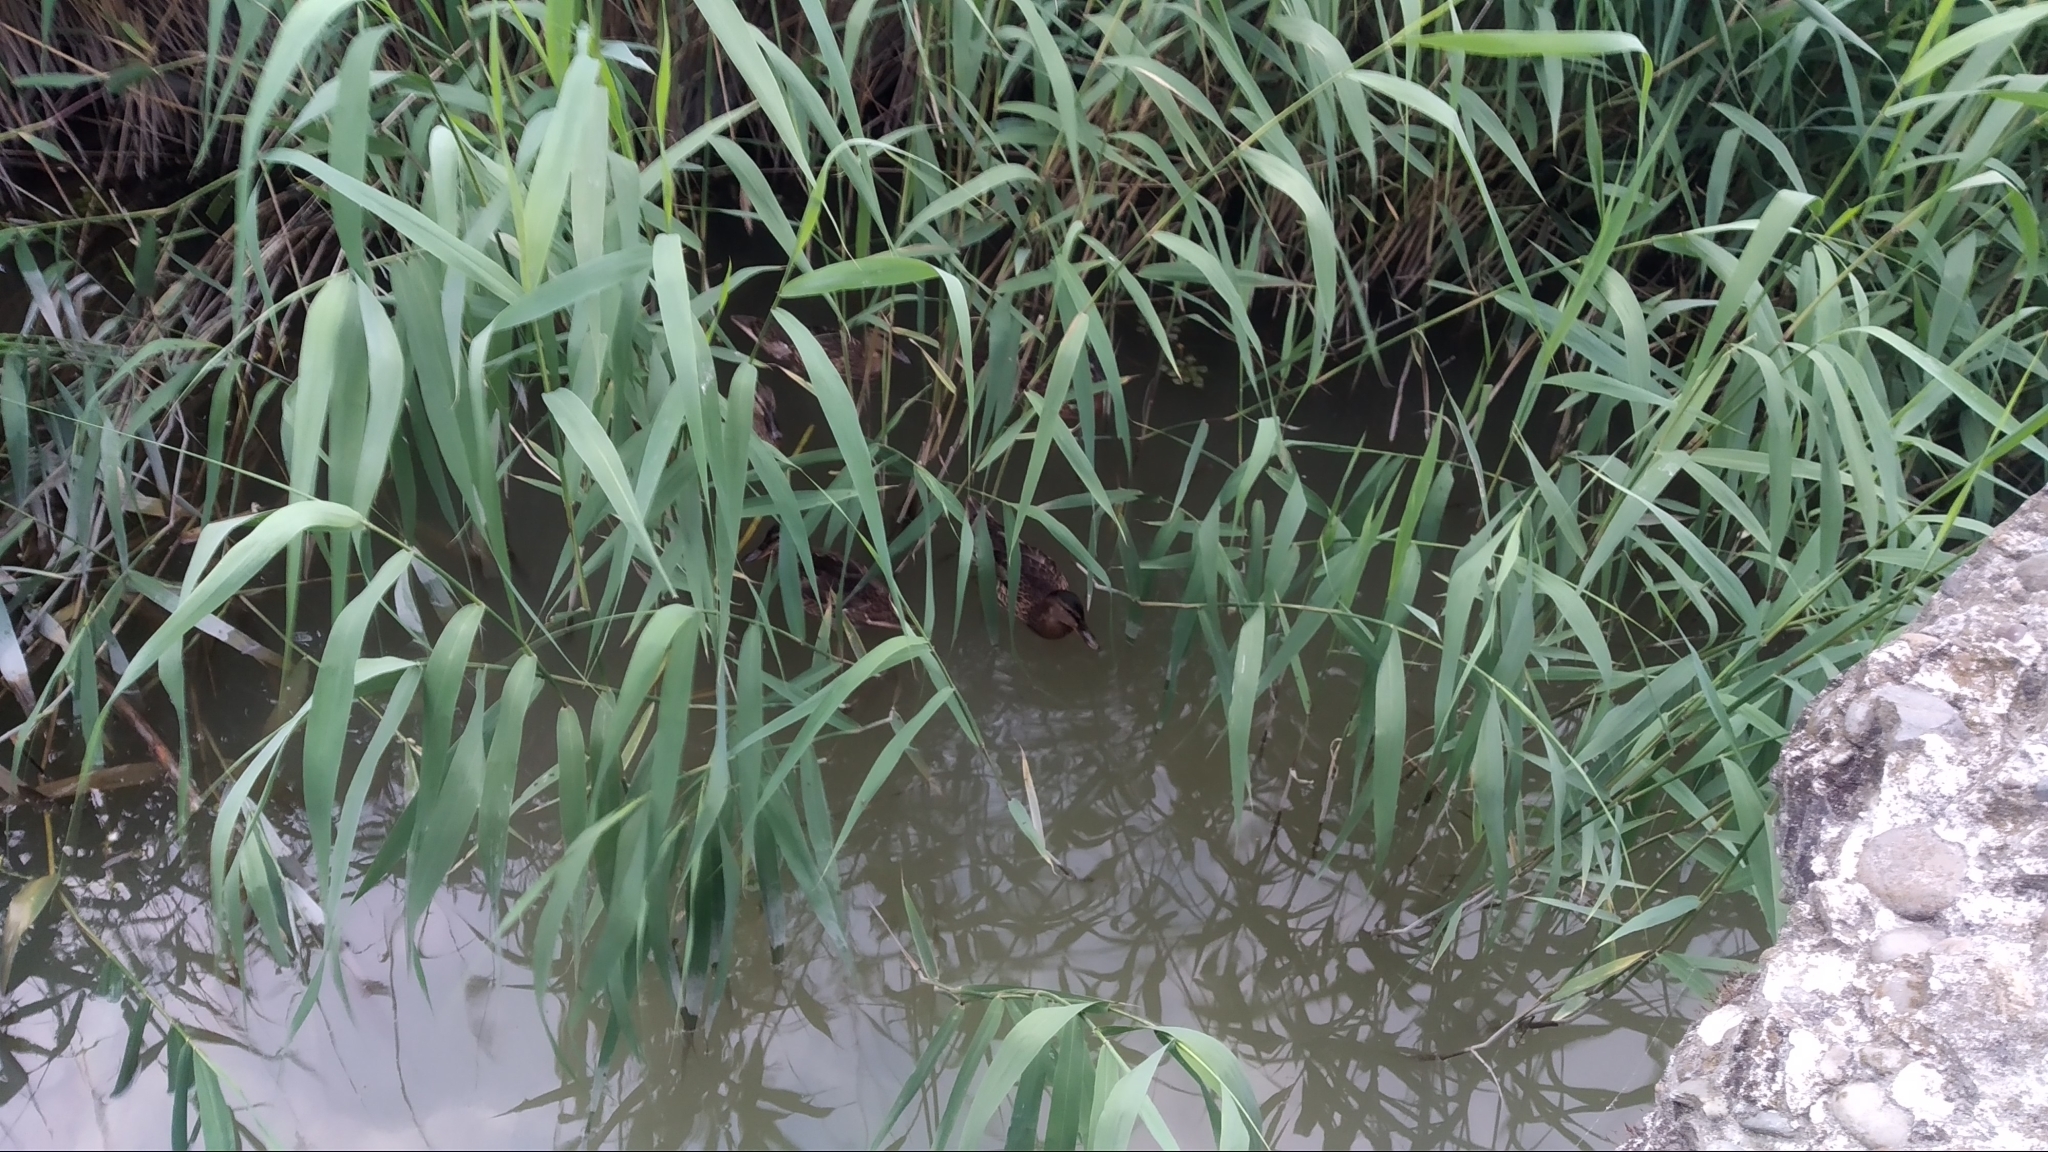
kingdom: Animalia
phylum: Chordata
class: Aves
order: Anseriformes
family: Anatidae
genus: Anas
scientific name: Anas platyrhynchos
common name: Mallard
